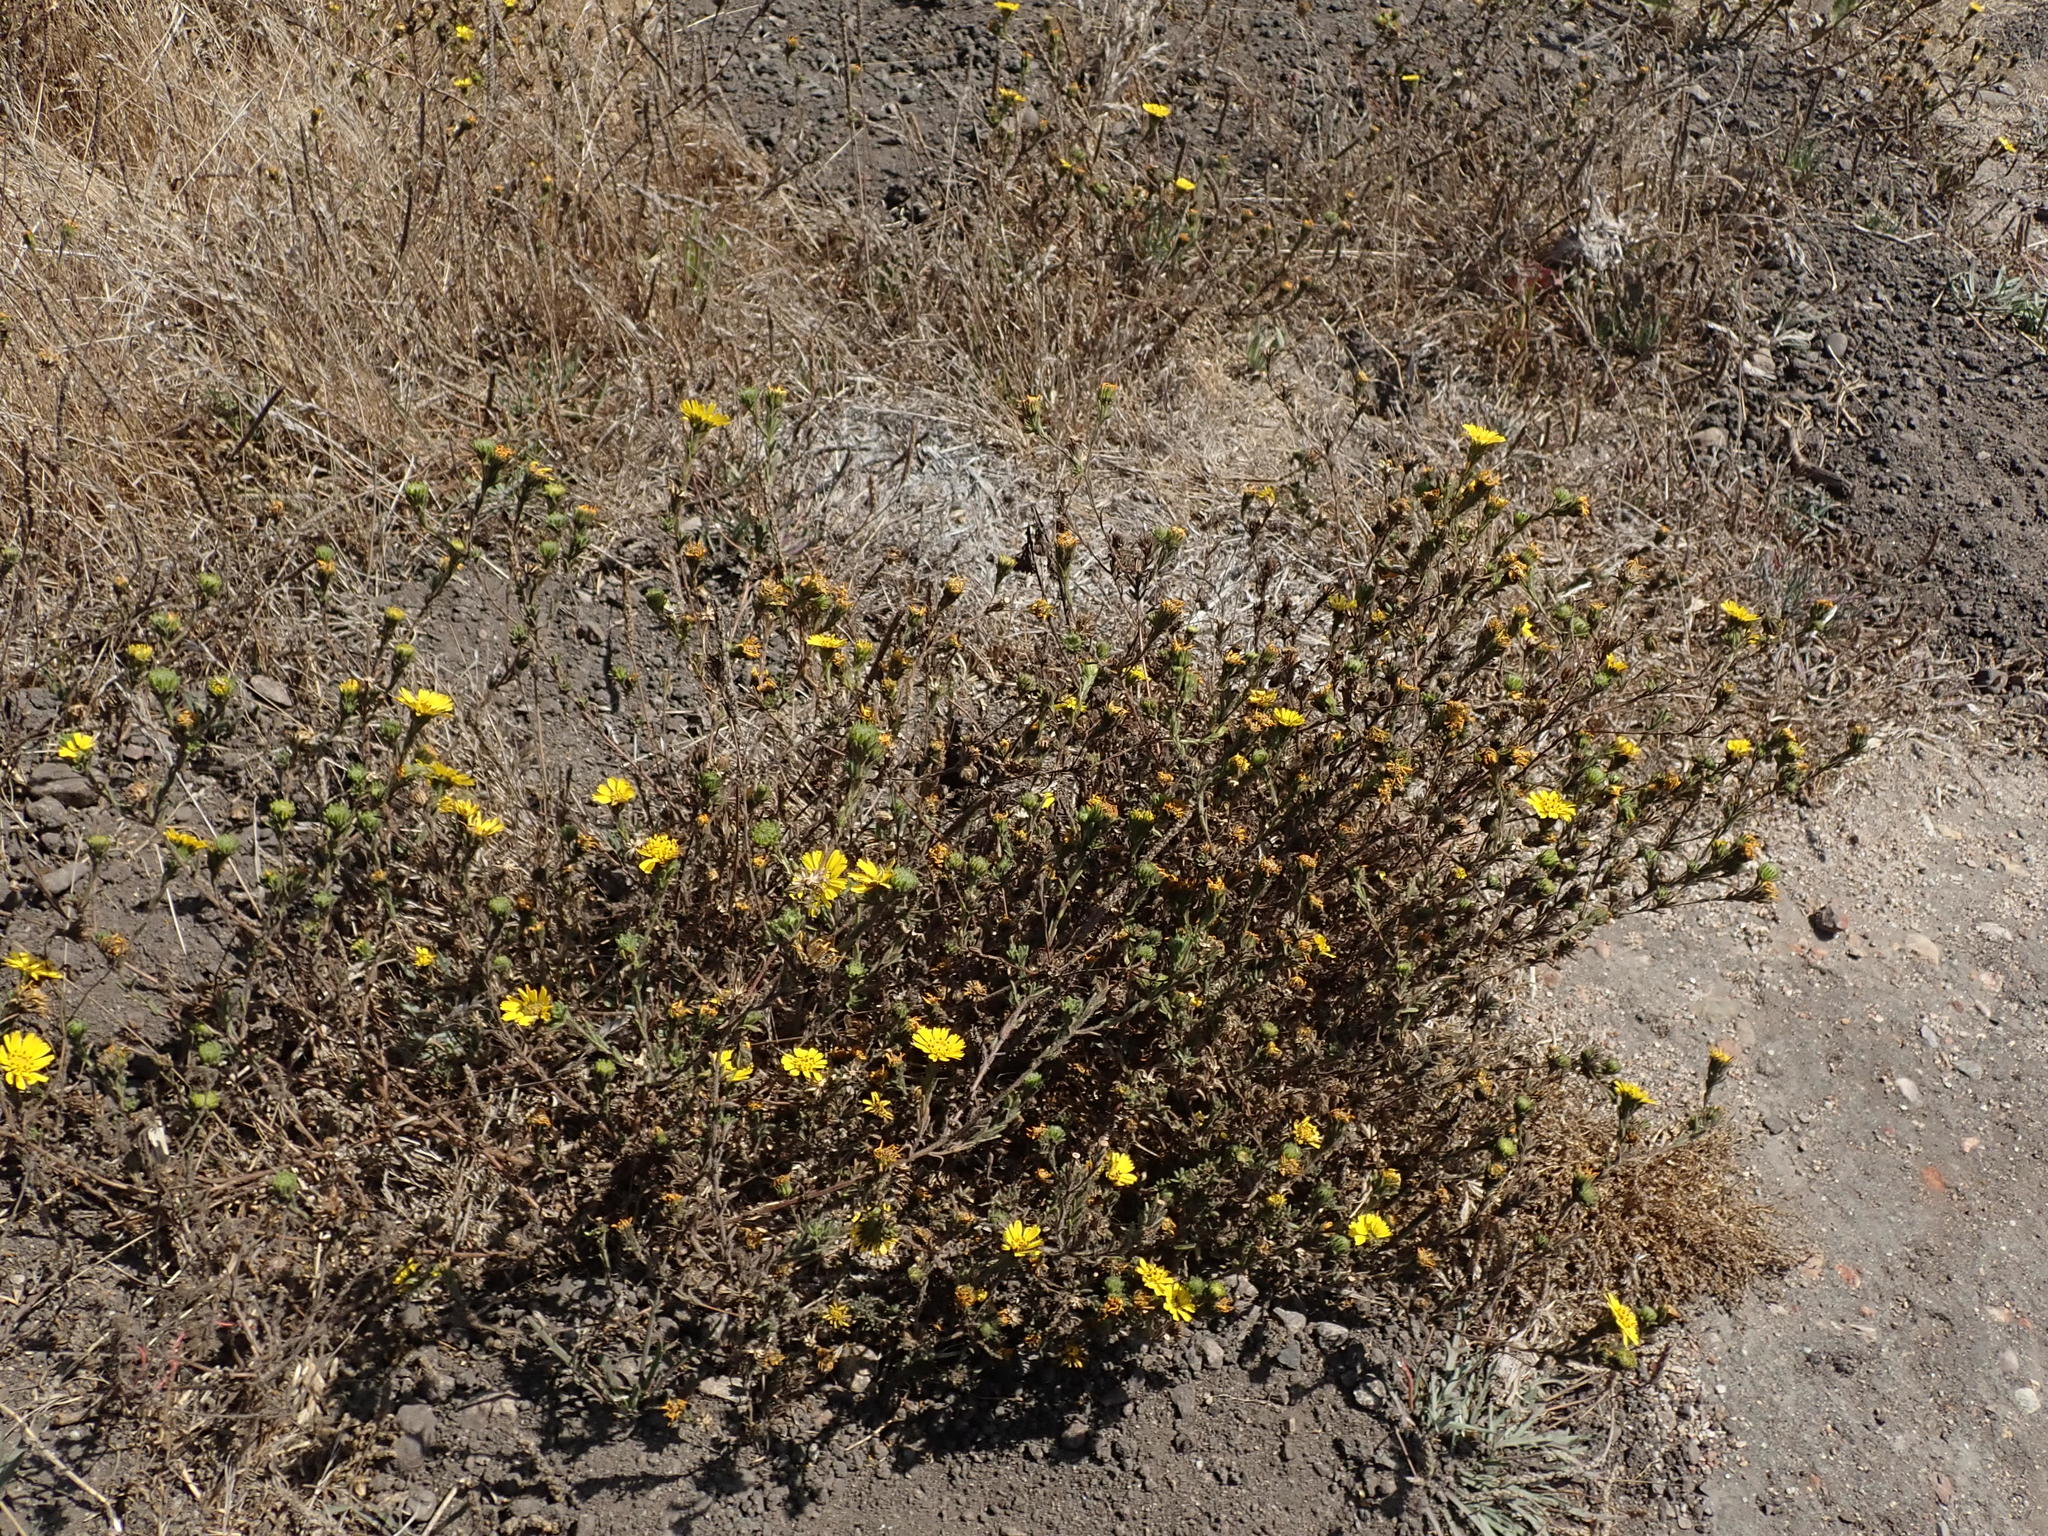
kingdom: Plantae
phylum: Tracheophyta
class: Magnoliopsida
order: Asterales
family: Asteraceae
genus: Deinandra
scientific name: Deinandra corymbosa
